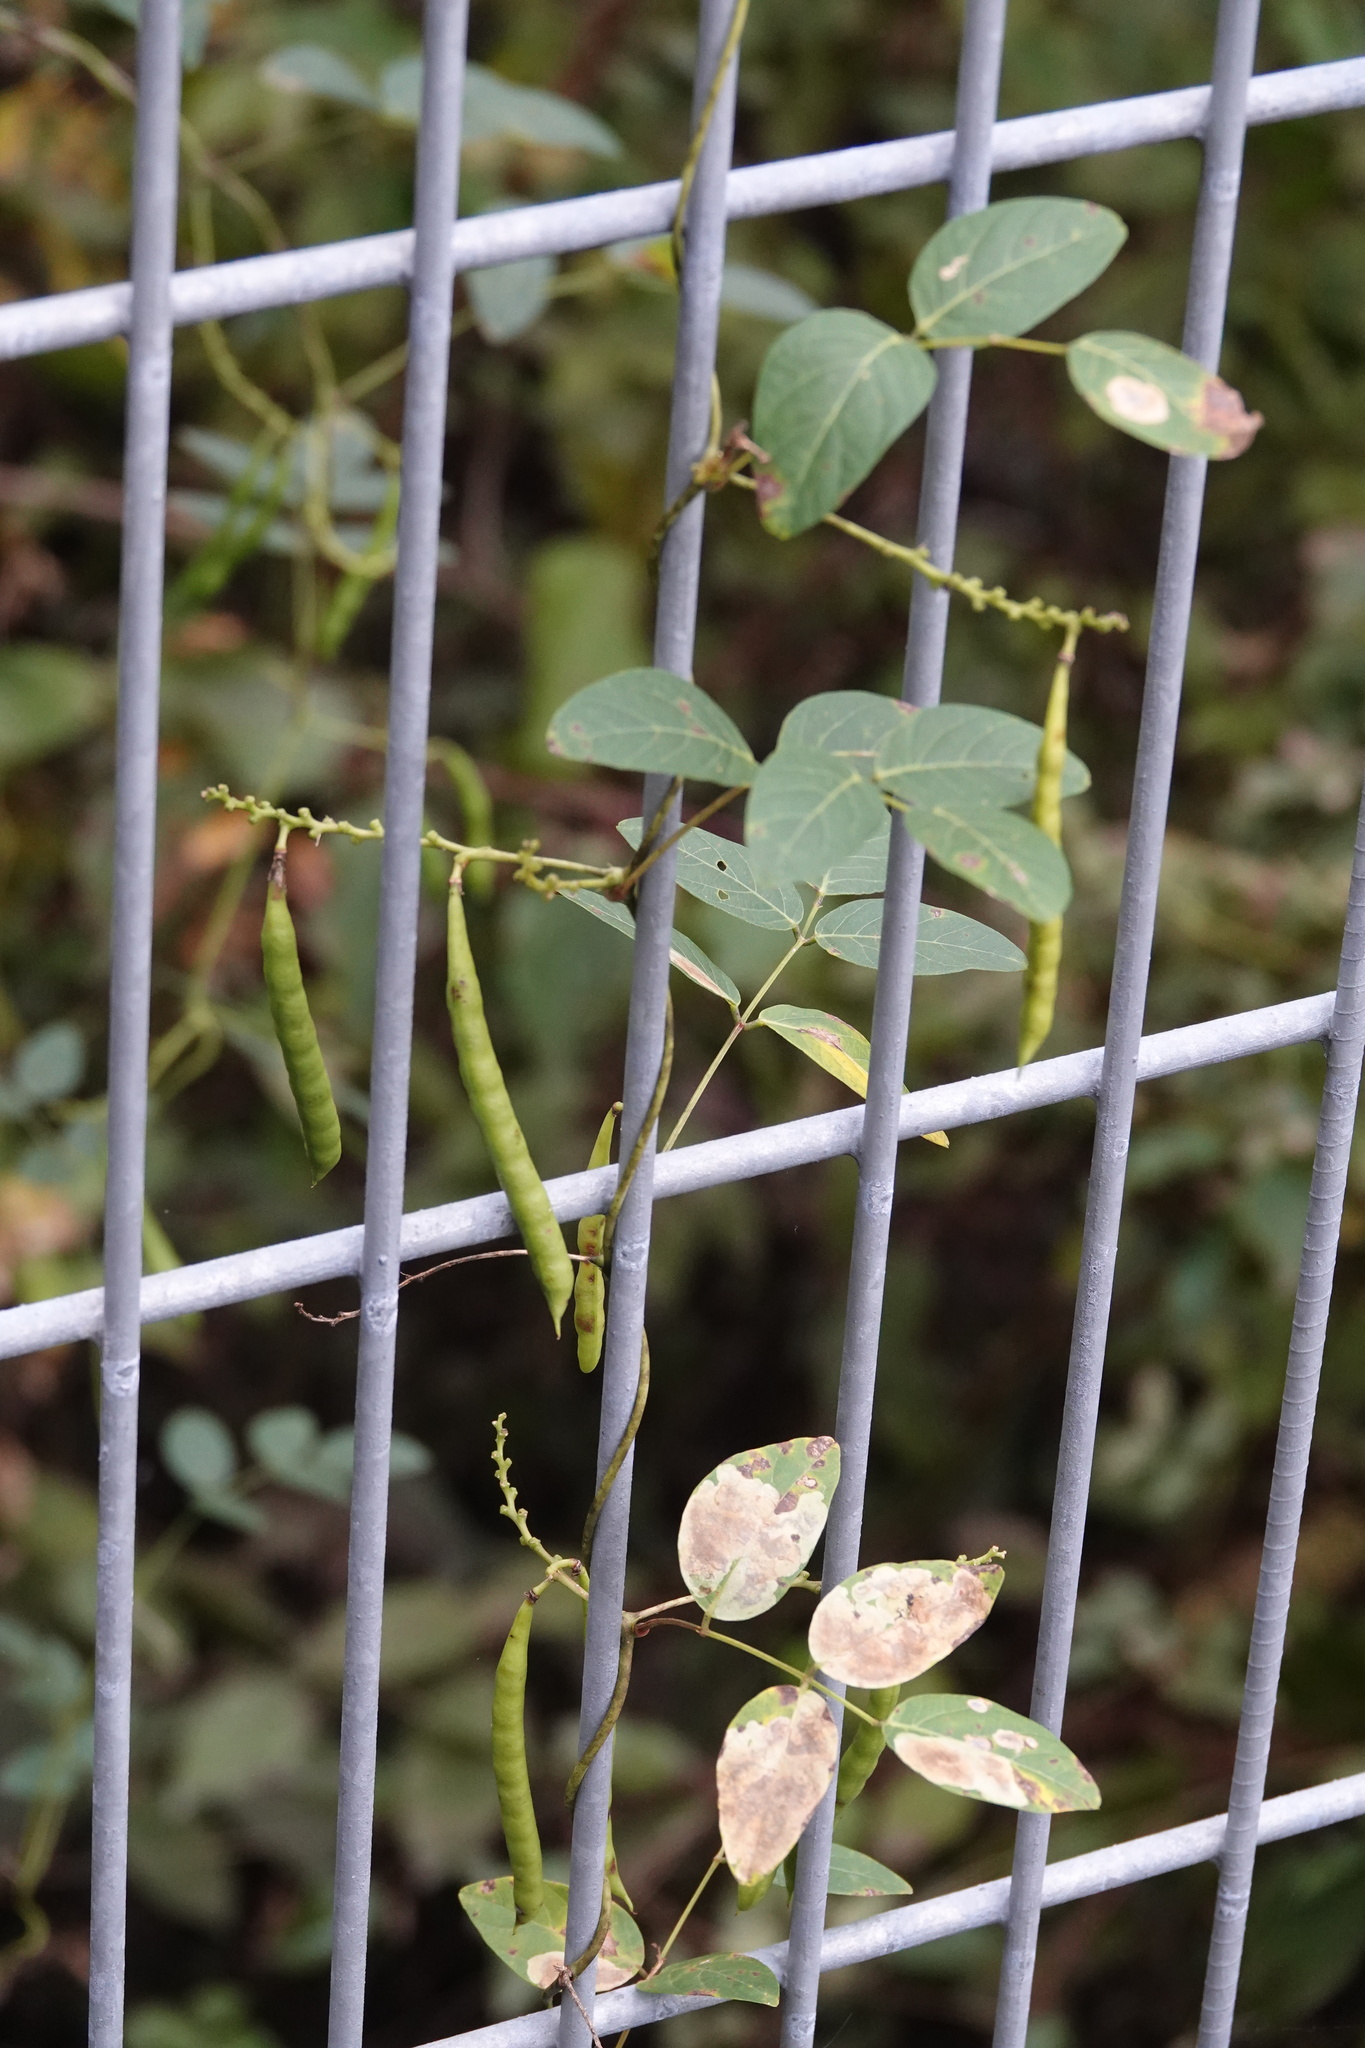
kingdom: Plantae
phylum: Tracheophyta
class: Magnoliopsida
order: Fabales
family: Fabaceae
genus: Apios
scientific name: Apios americana
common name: American potato-bean
